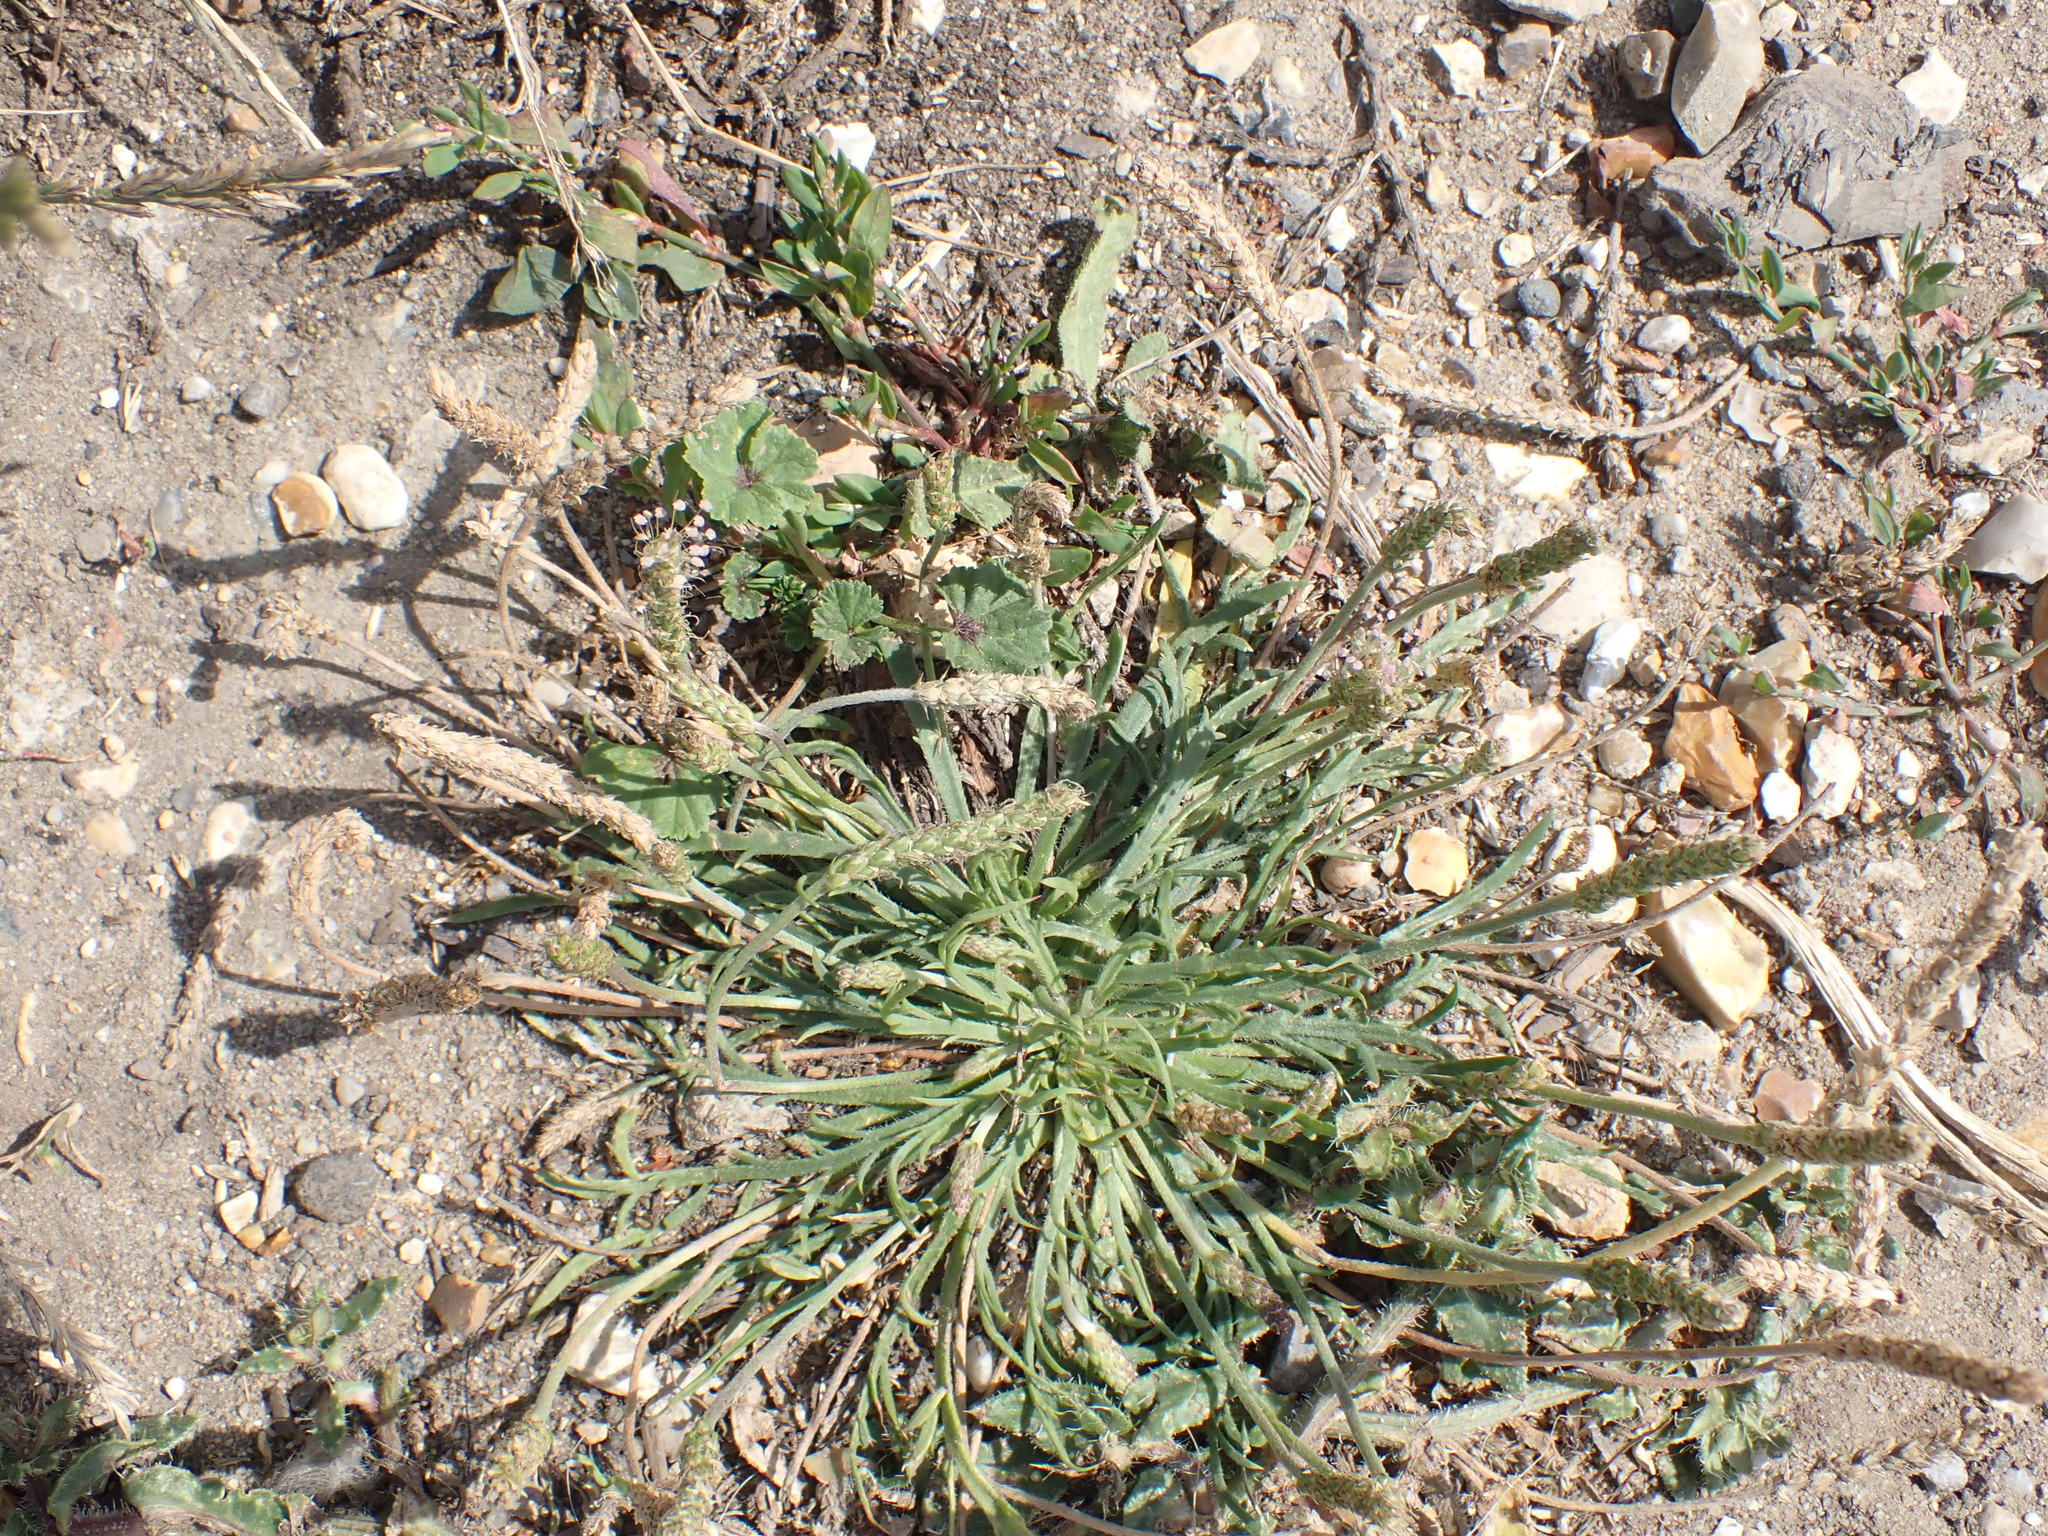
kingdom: Plantae
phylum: Tracheophyta
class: Magnoliopsida
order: Lamiales
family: Plantaginaceae
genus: Plantago
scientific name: Plantago coronopus
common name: Buck's-horn plantain
